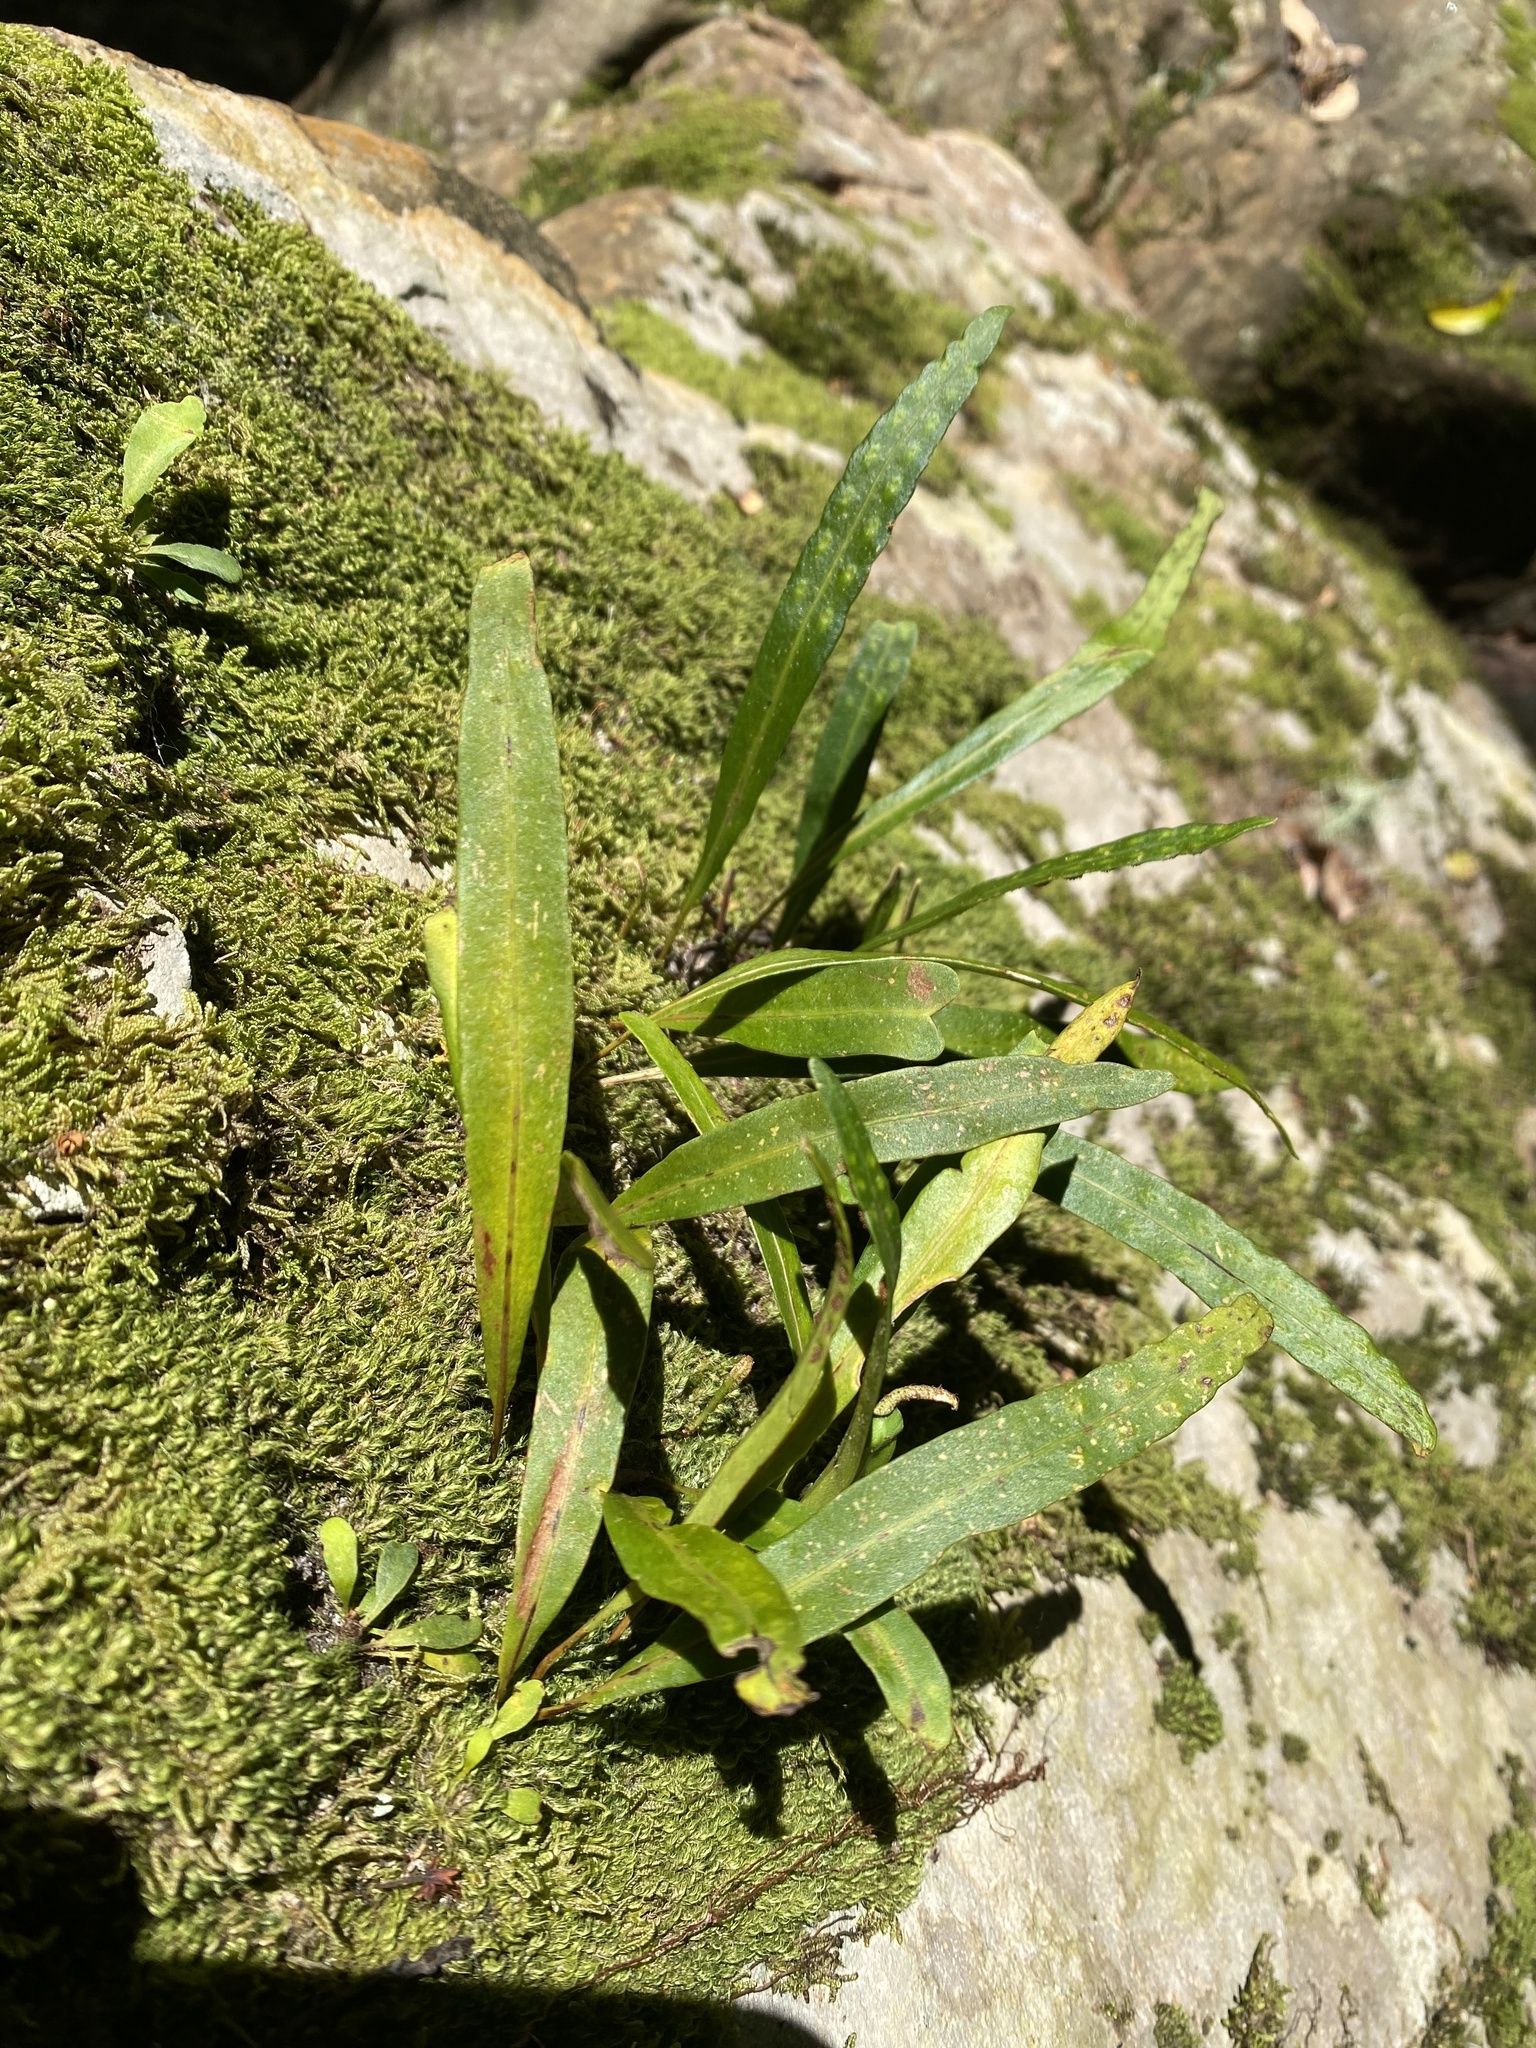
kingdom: Plantae
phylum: Tracheophyta
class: Polypodiopsida
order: Polypodiales
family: Polypodiaceae
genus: Pleopeltis
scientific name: Pleopeltis macrocarpa
